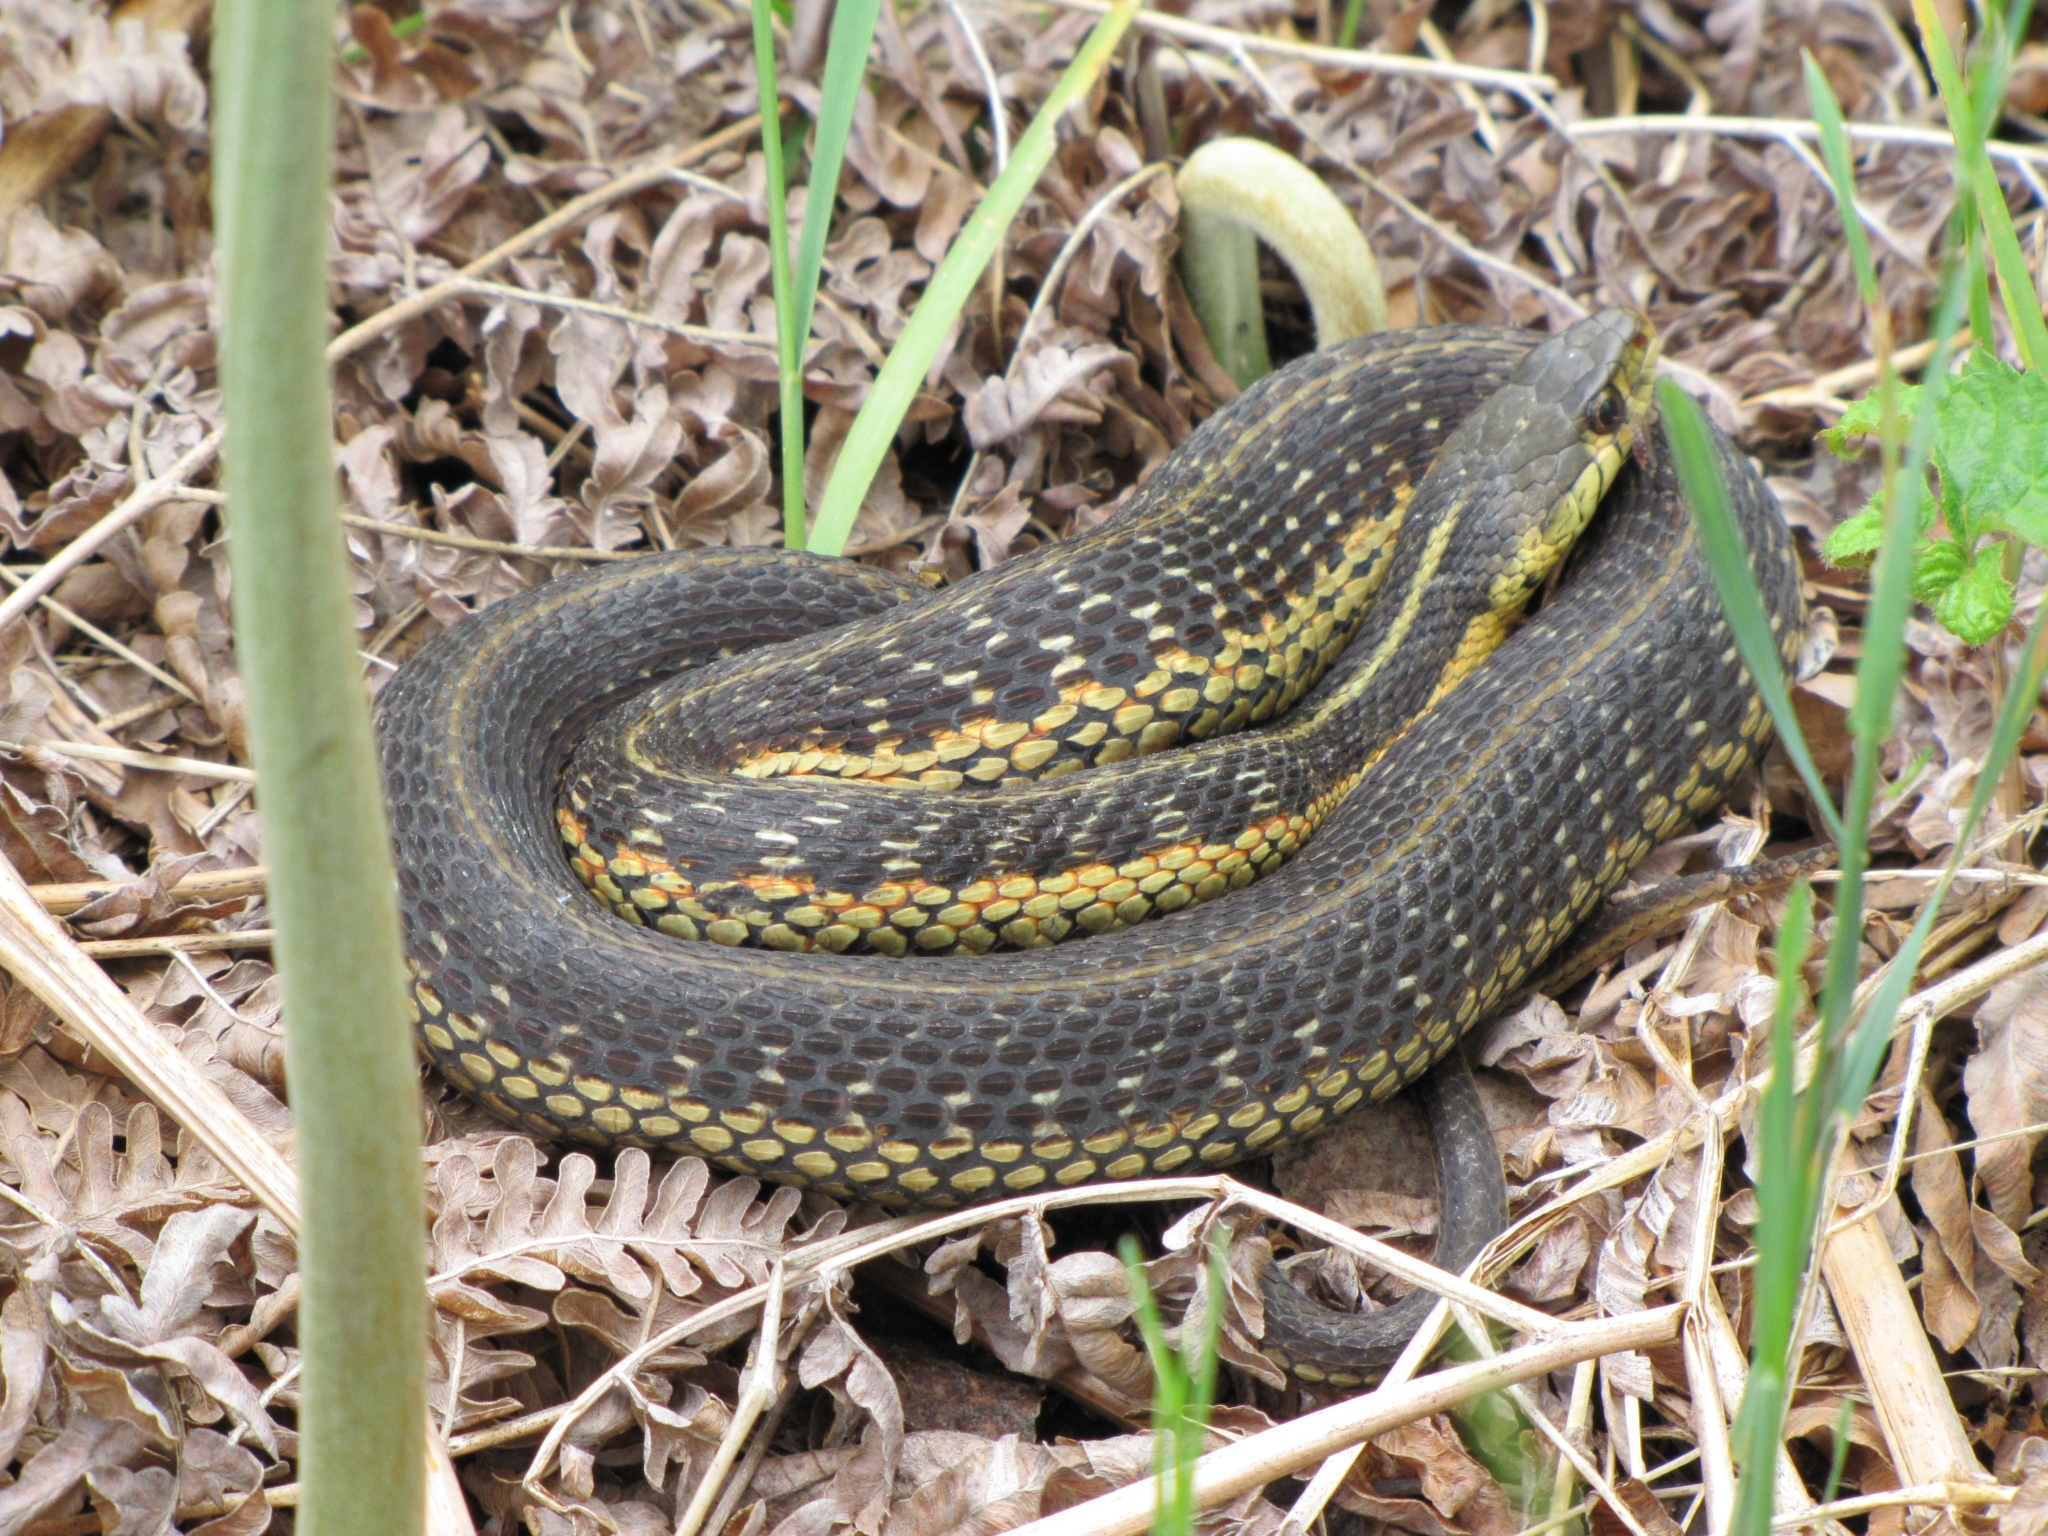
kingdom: Animalia
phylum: Chordata
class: Squamata
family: Colubridae
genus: Thamnophis
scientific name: Thamnophis sirtalis
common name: Common garter snake
